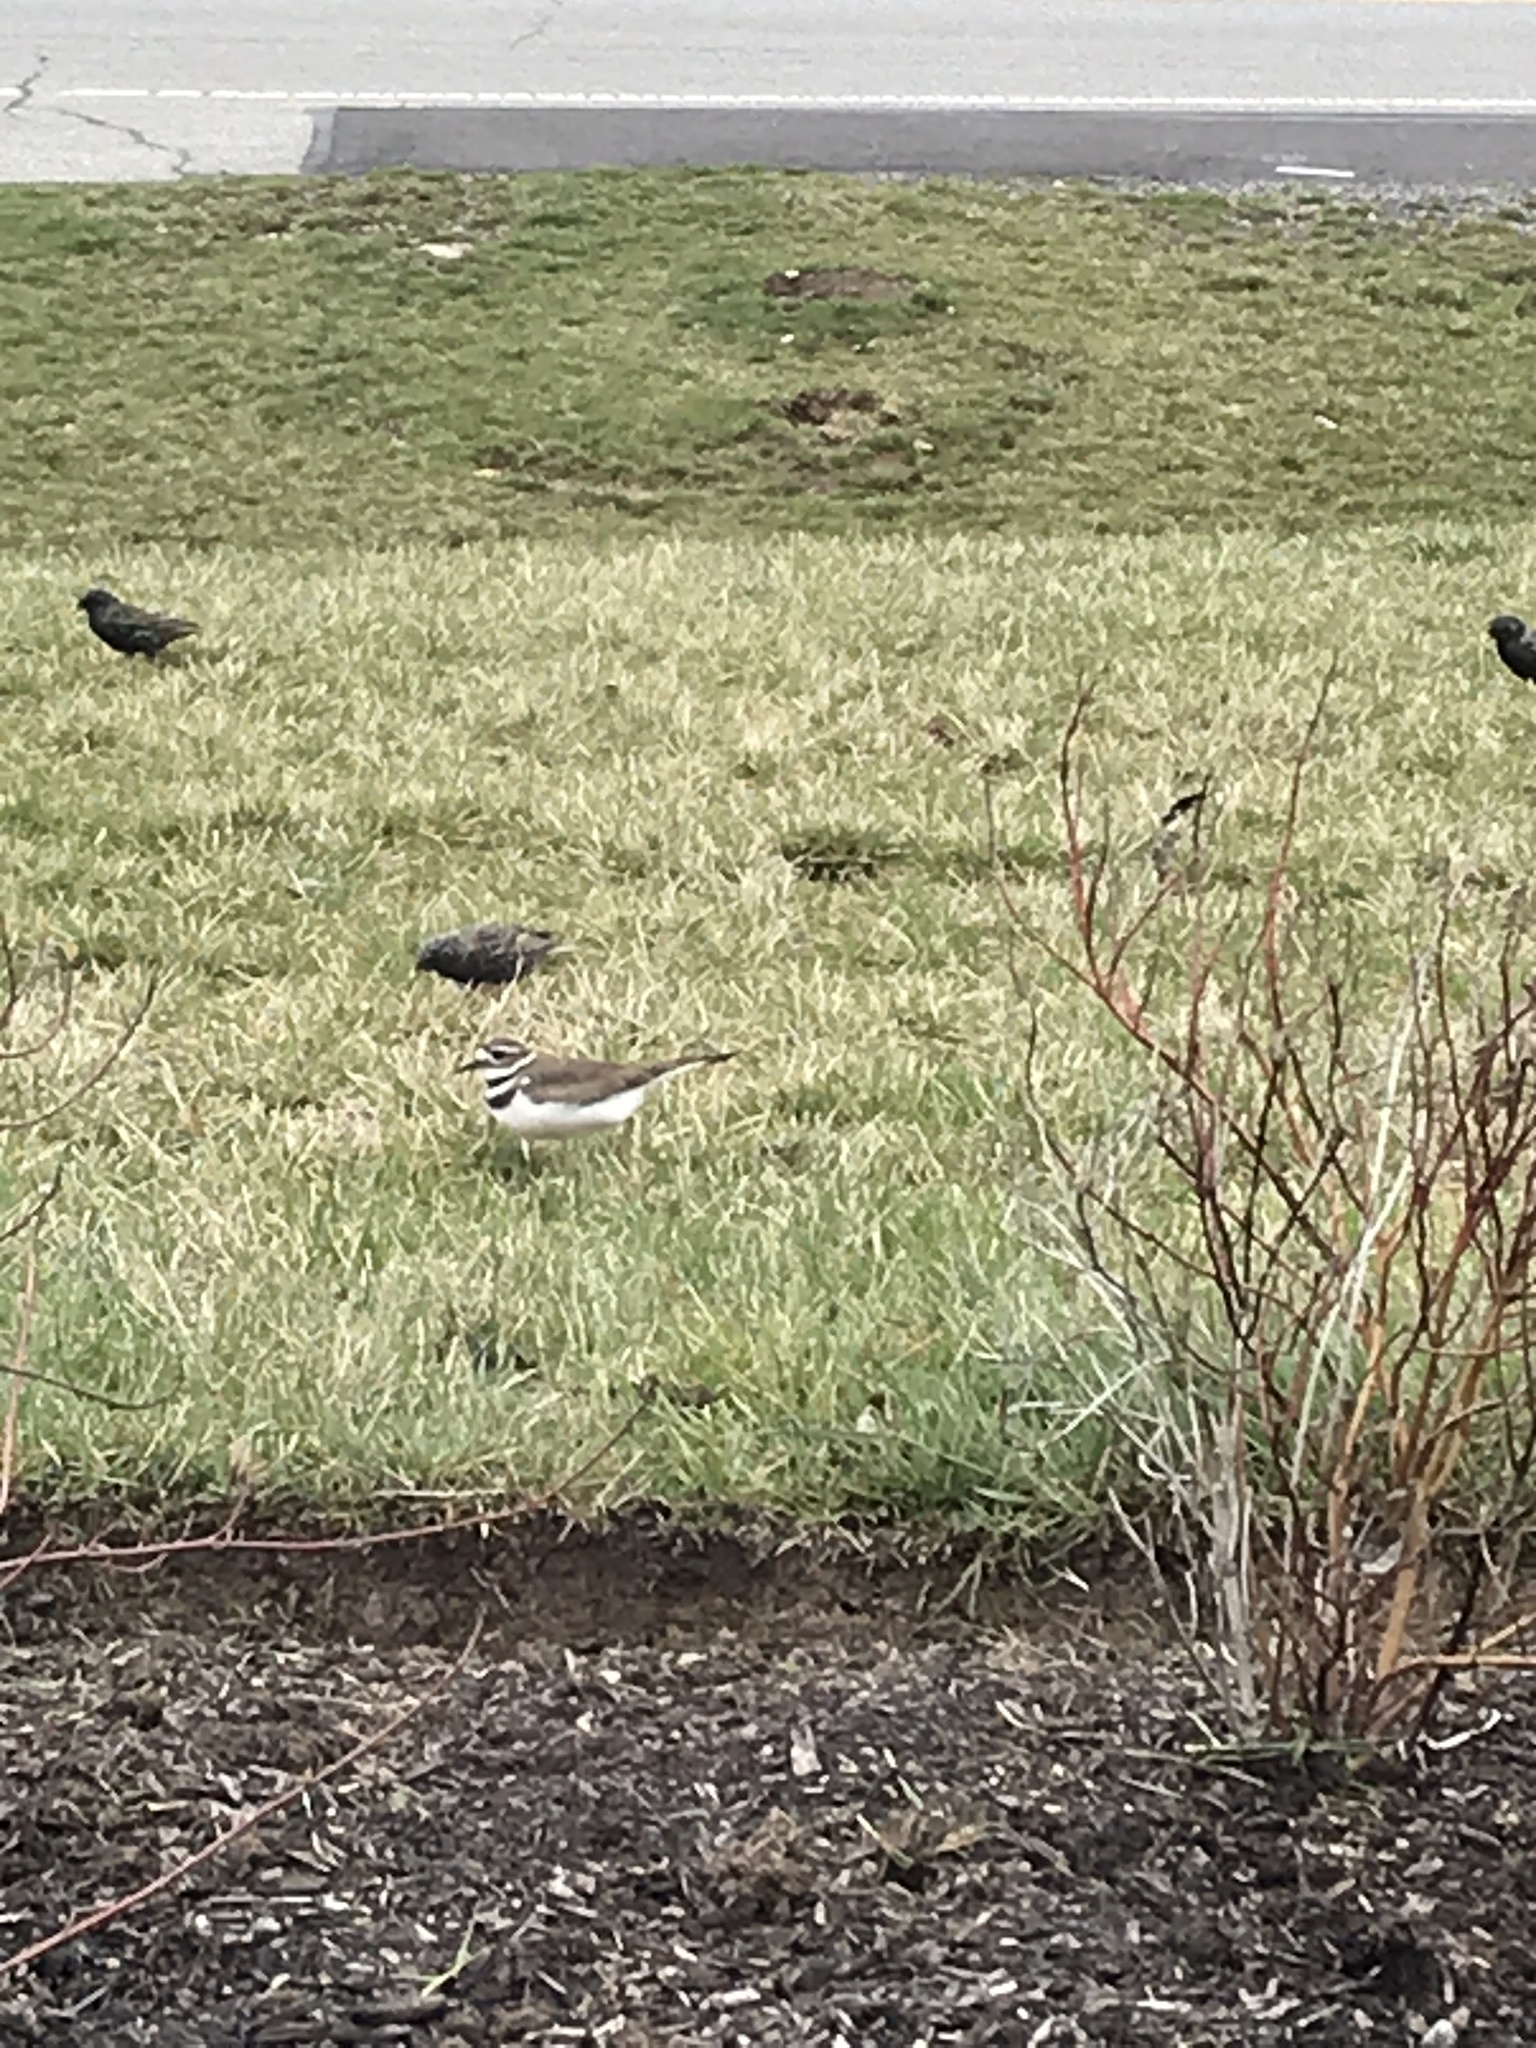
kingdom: Animalia
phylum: Chordata
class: Aves
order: Charadriiformes
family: Charadriidae
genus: Charadrius
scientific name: Charadrius vociferus
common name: Killdeer
